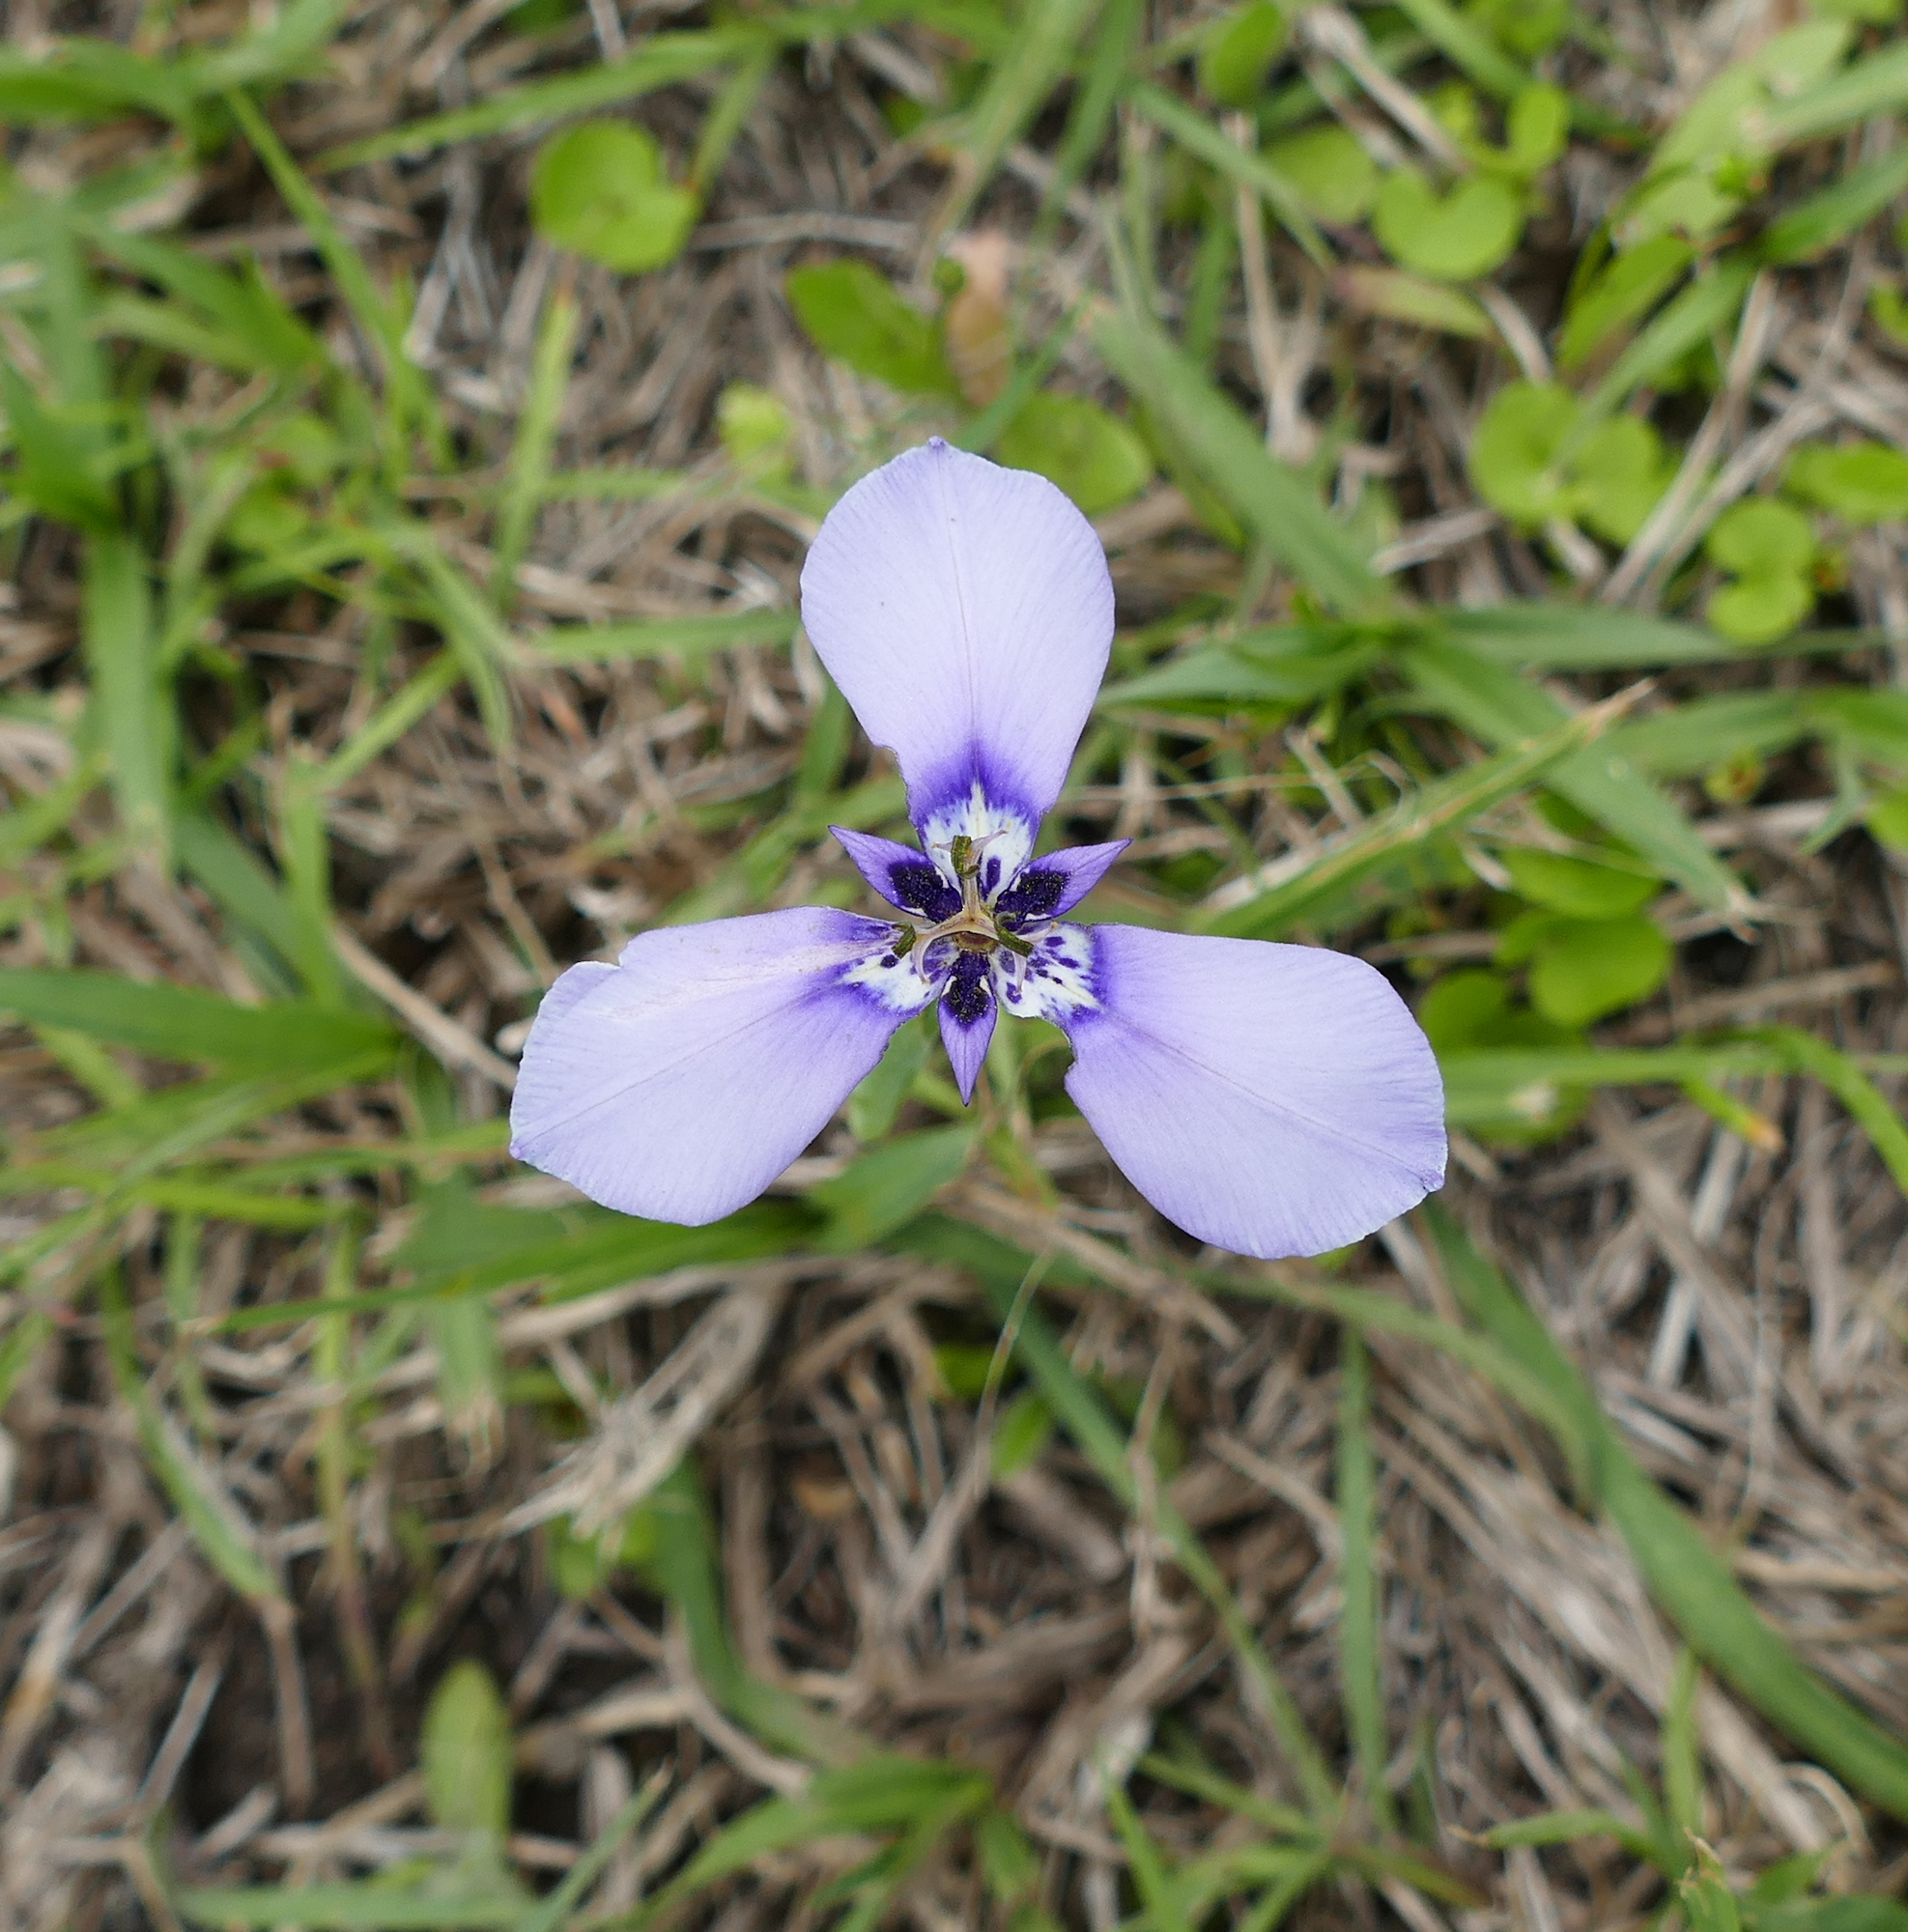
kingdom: Plantae
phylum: Tracheophyta
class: Liliopsida
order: Asparagales
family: Iridaceae
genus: Herbertia
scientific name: Herbertia lahue
